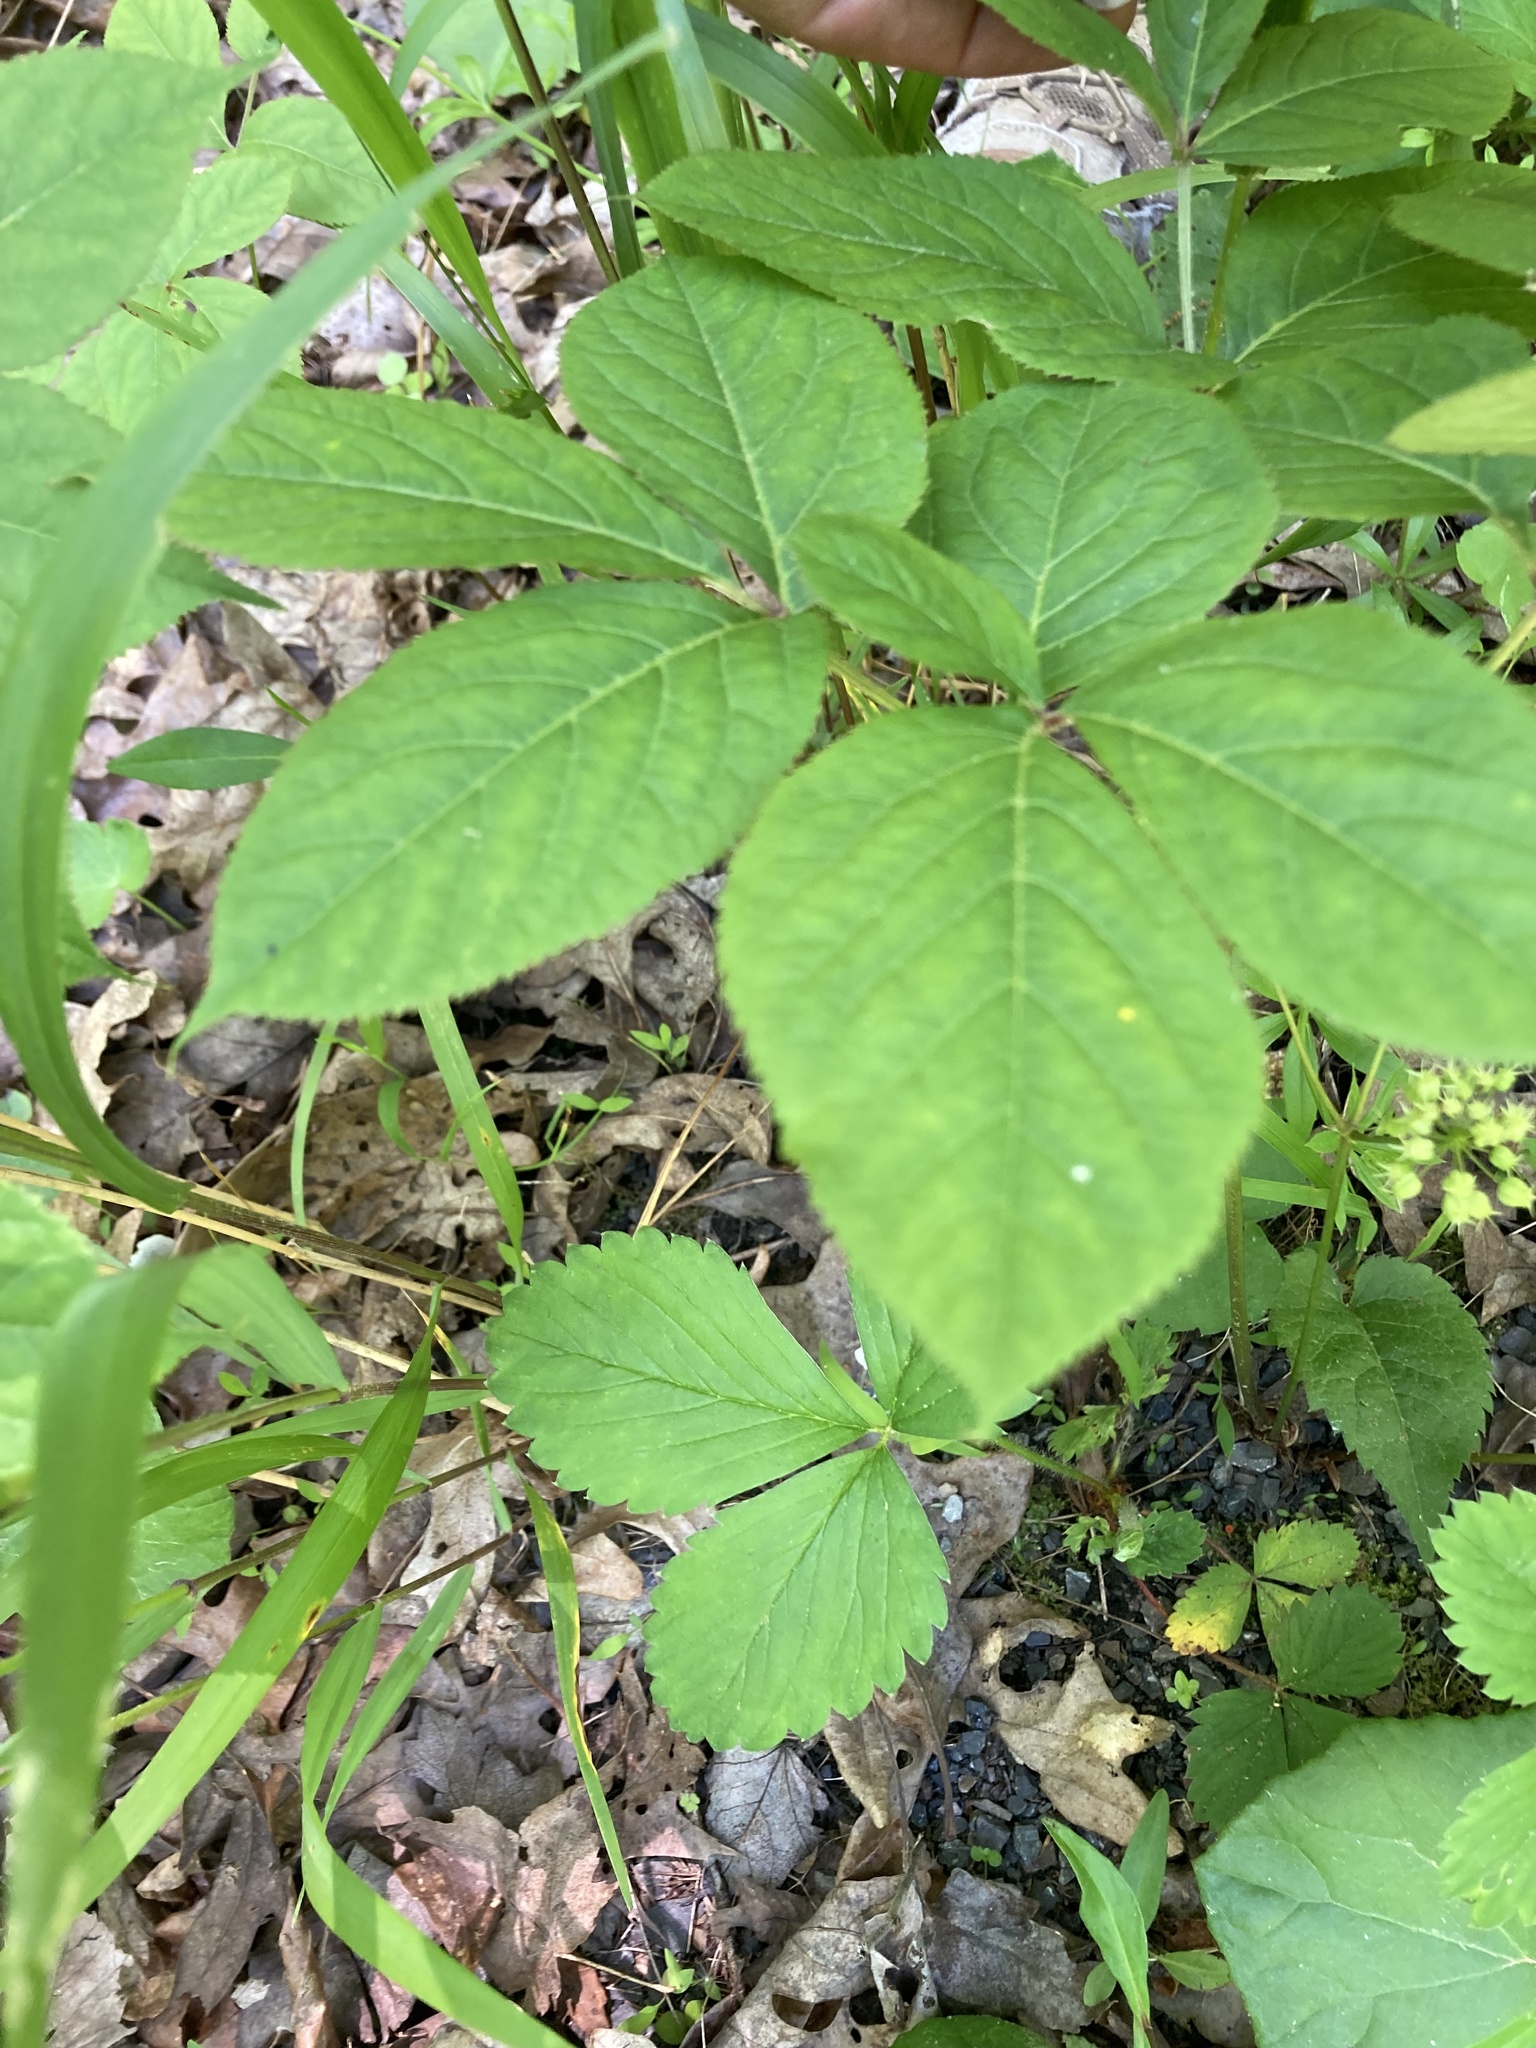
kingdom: Plantae
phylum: Tracheophyta
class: Magnoliopsida
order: Apiales
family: Araliaceae
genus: Aralia
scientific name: Aralia nudicaulis
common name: Wild sarsaparilla
